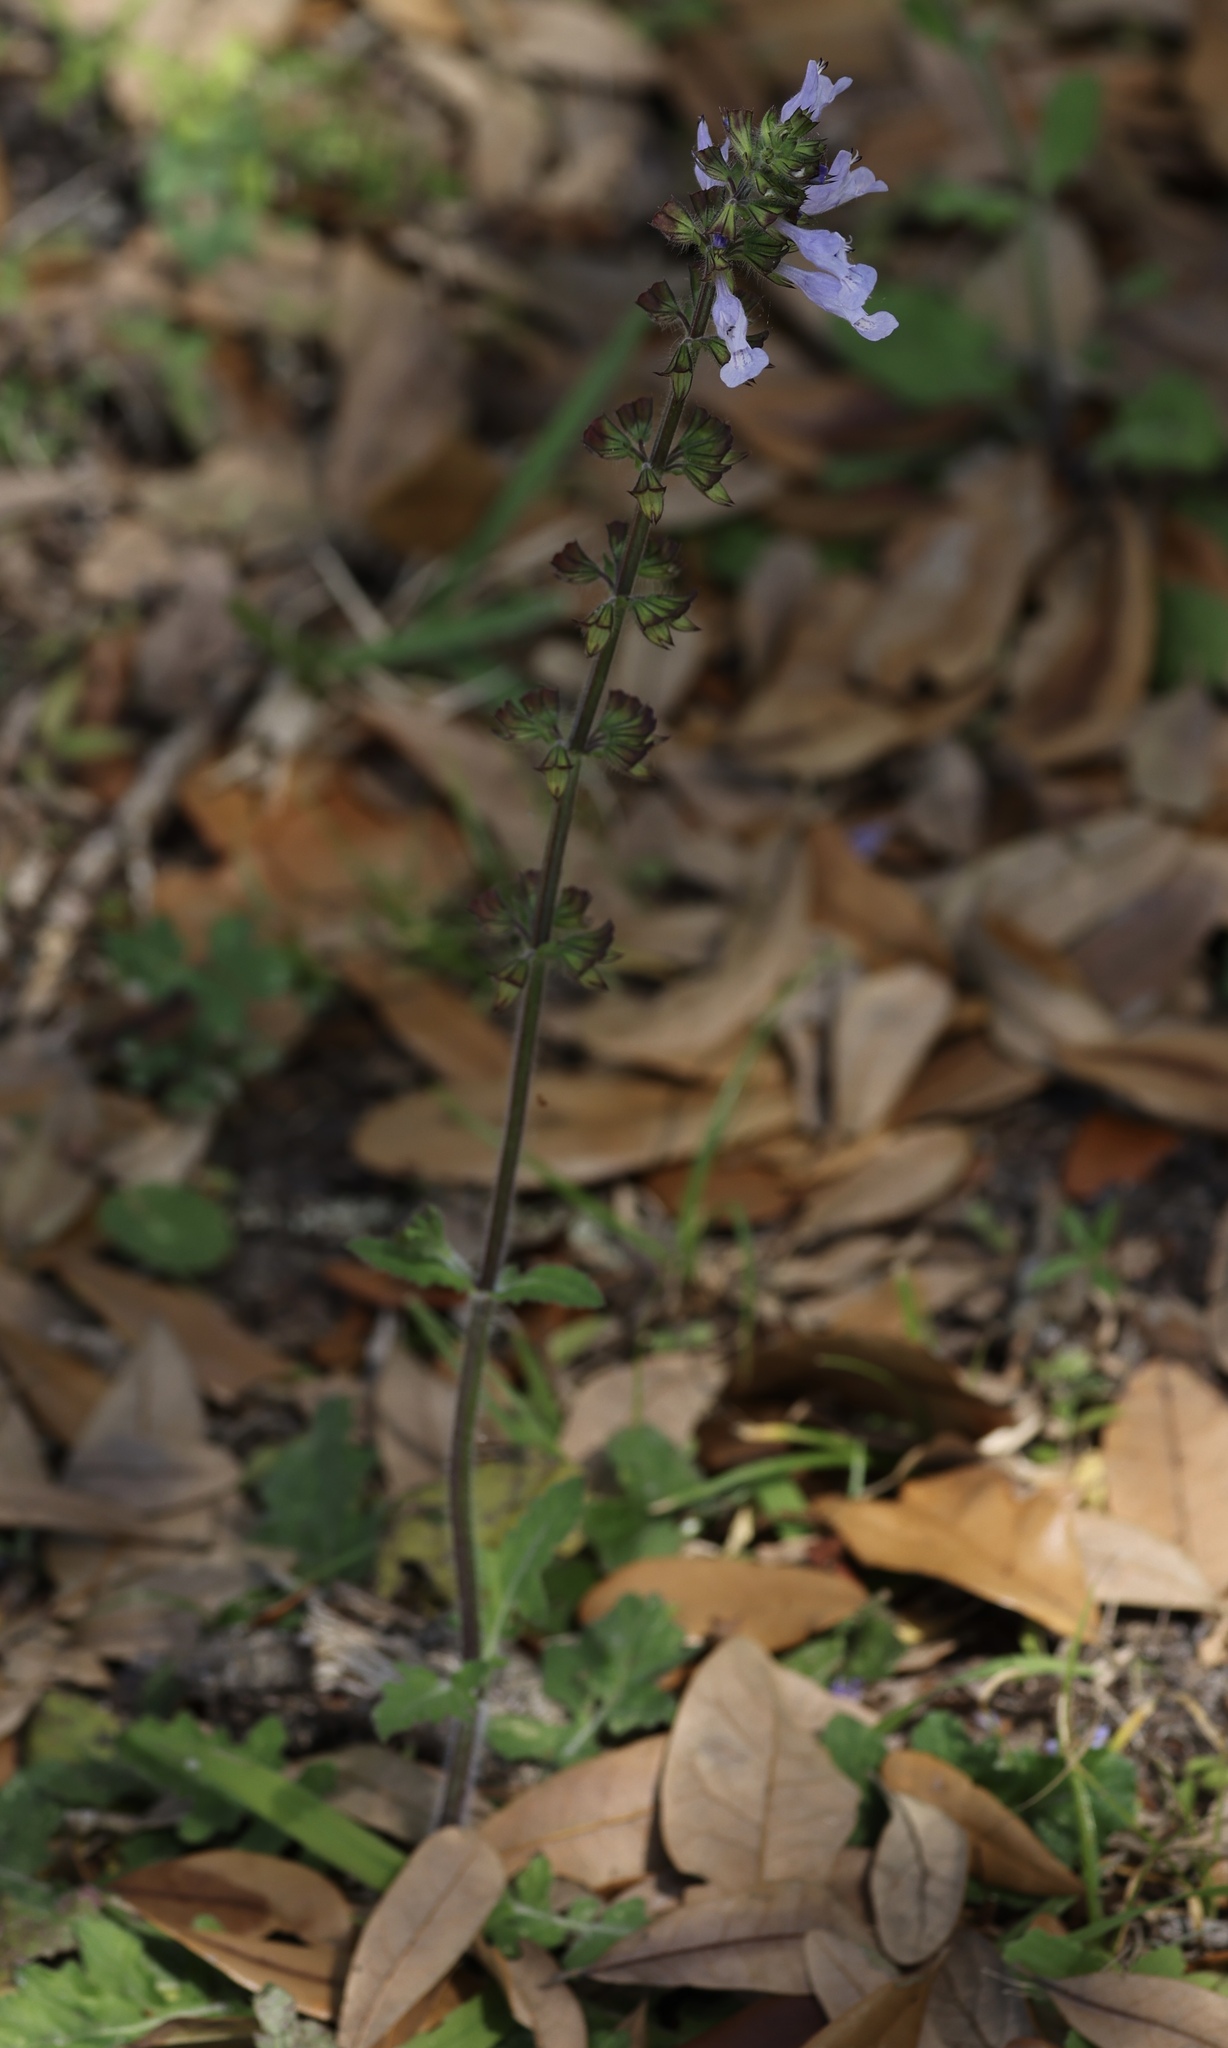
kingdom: Plantae
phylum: Tracheophyta
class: Magnoliopsida
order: Lamiales
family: Lamiaceae
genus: Salvia
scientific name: Salvia lyrata
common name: Cancerweed
